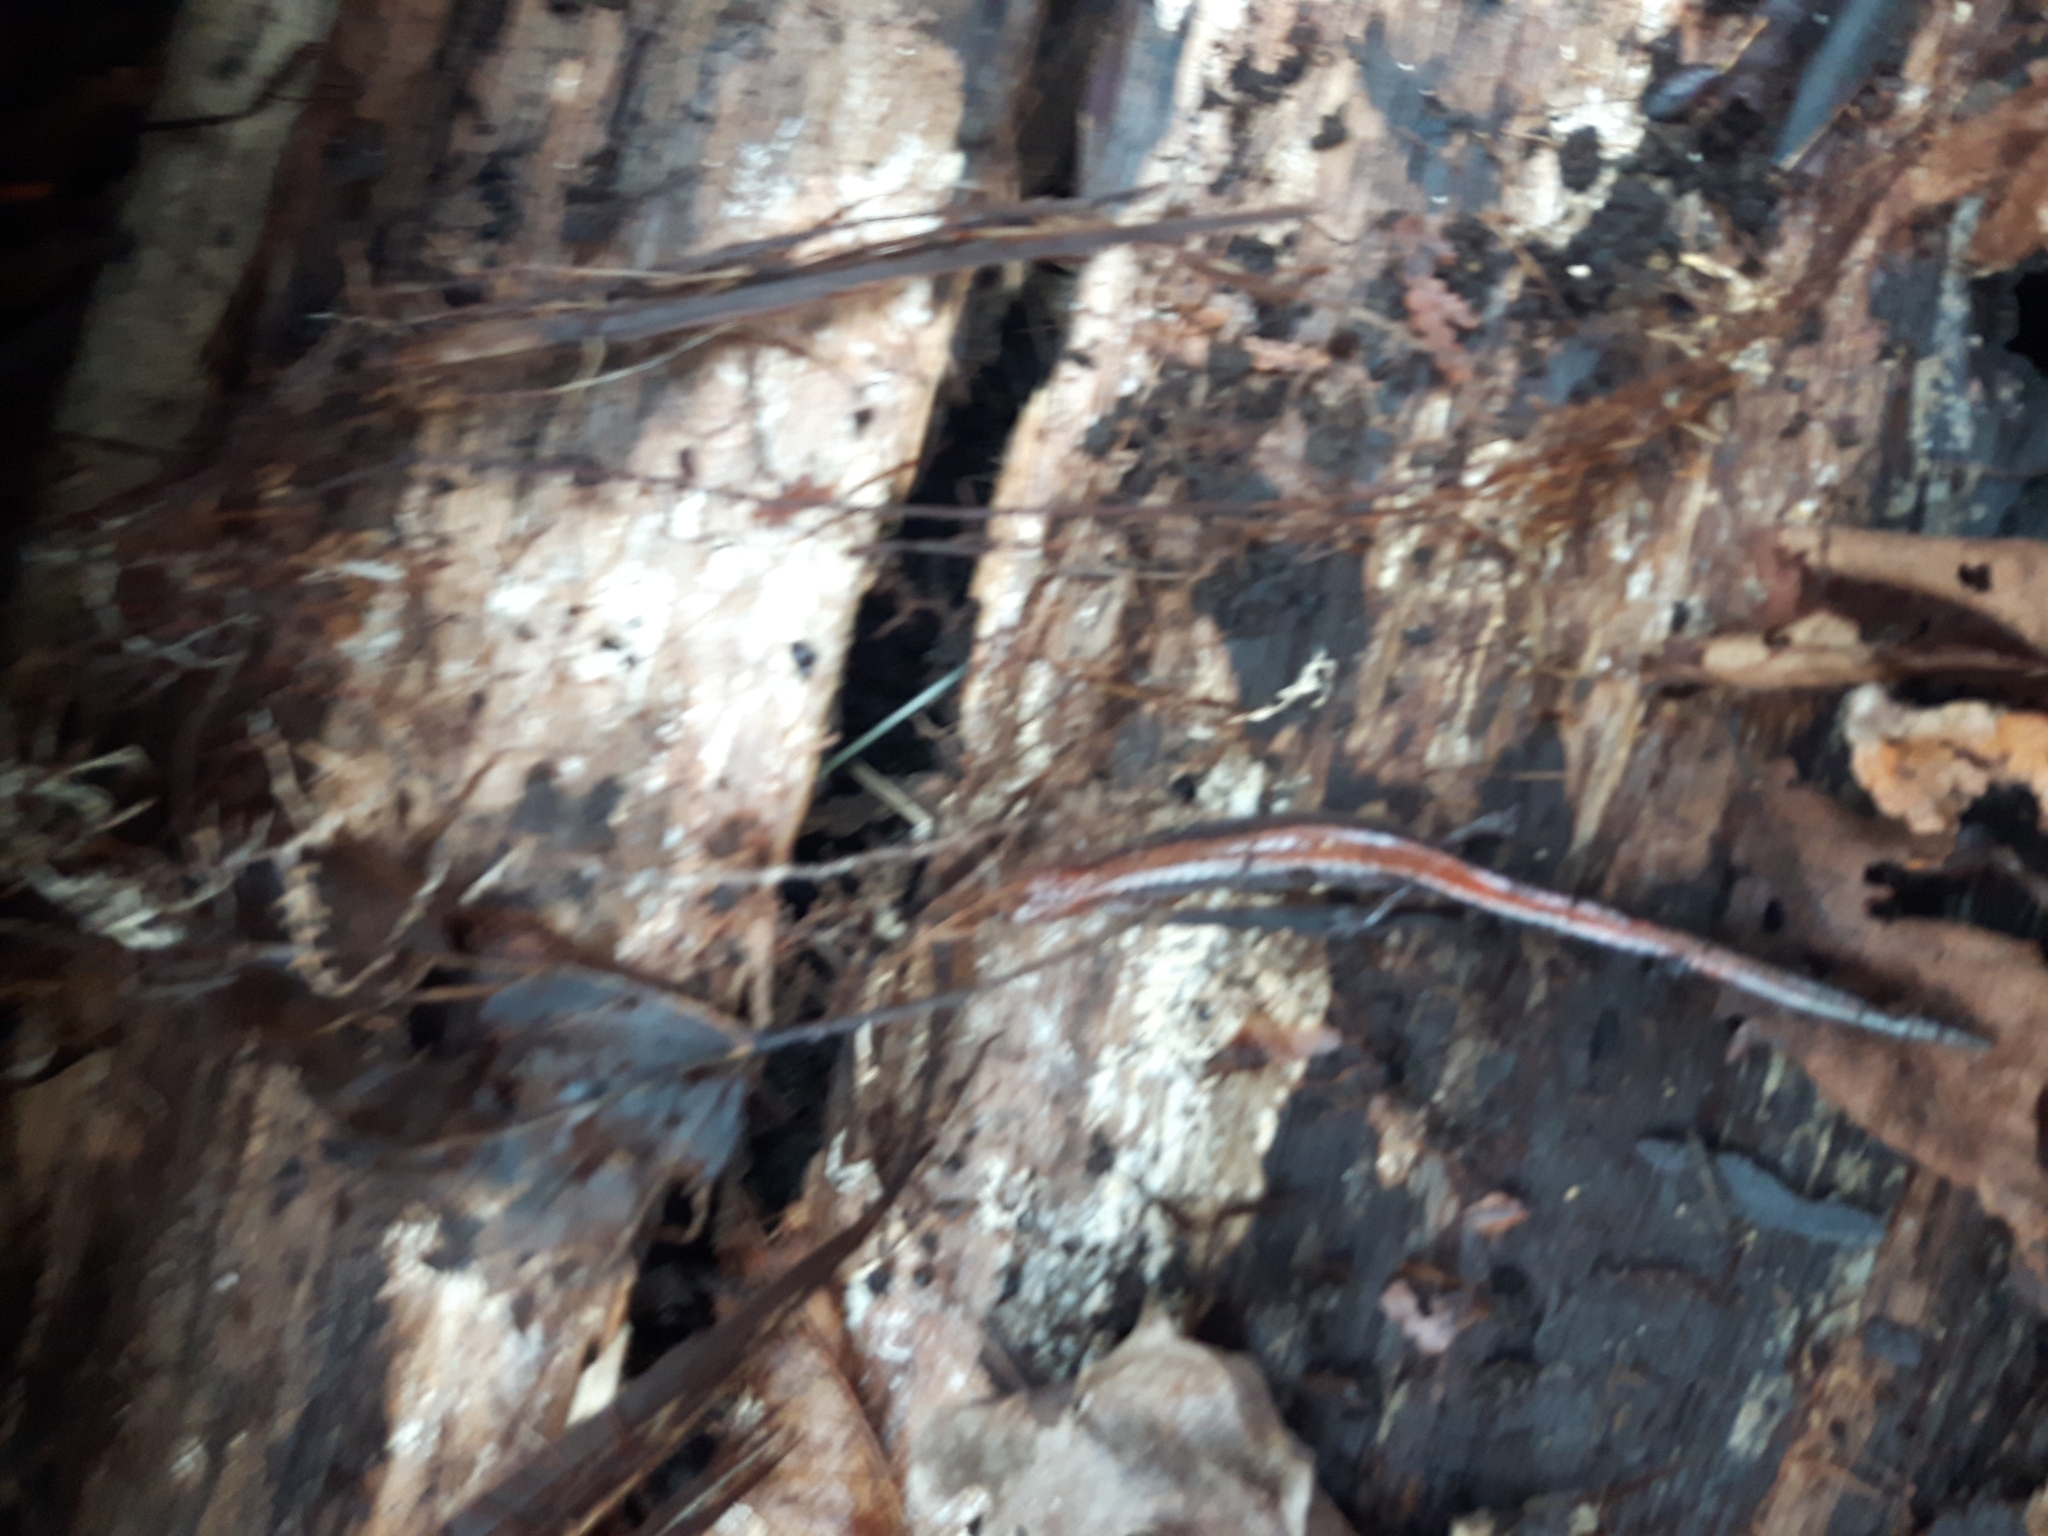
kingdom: Animalia
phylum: Chordata
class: Amphibia
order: Caudata
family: Plethodontidae
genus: Plethodon
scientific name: Plethodon cinereus
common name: Redback salamander
